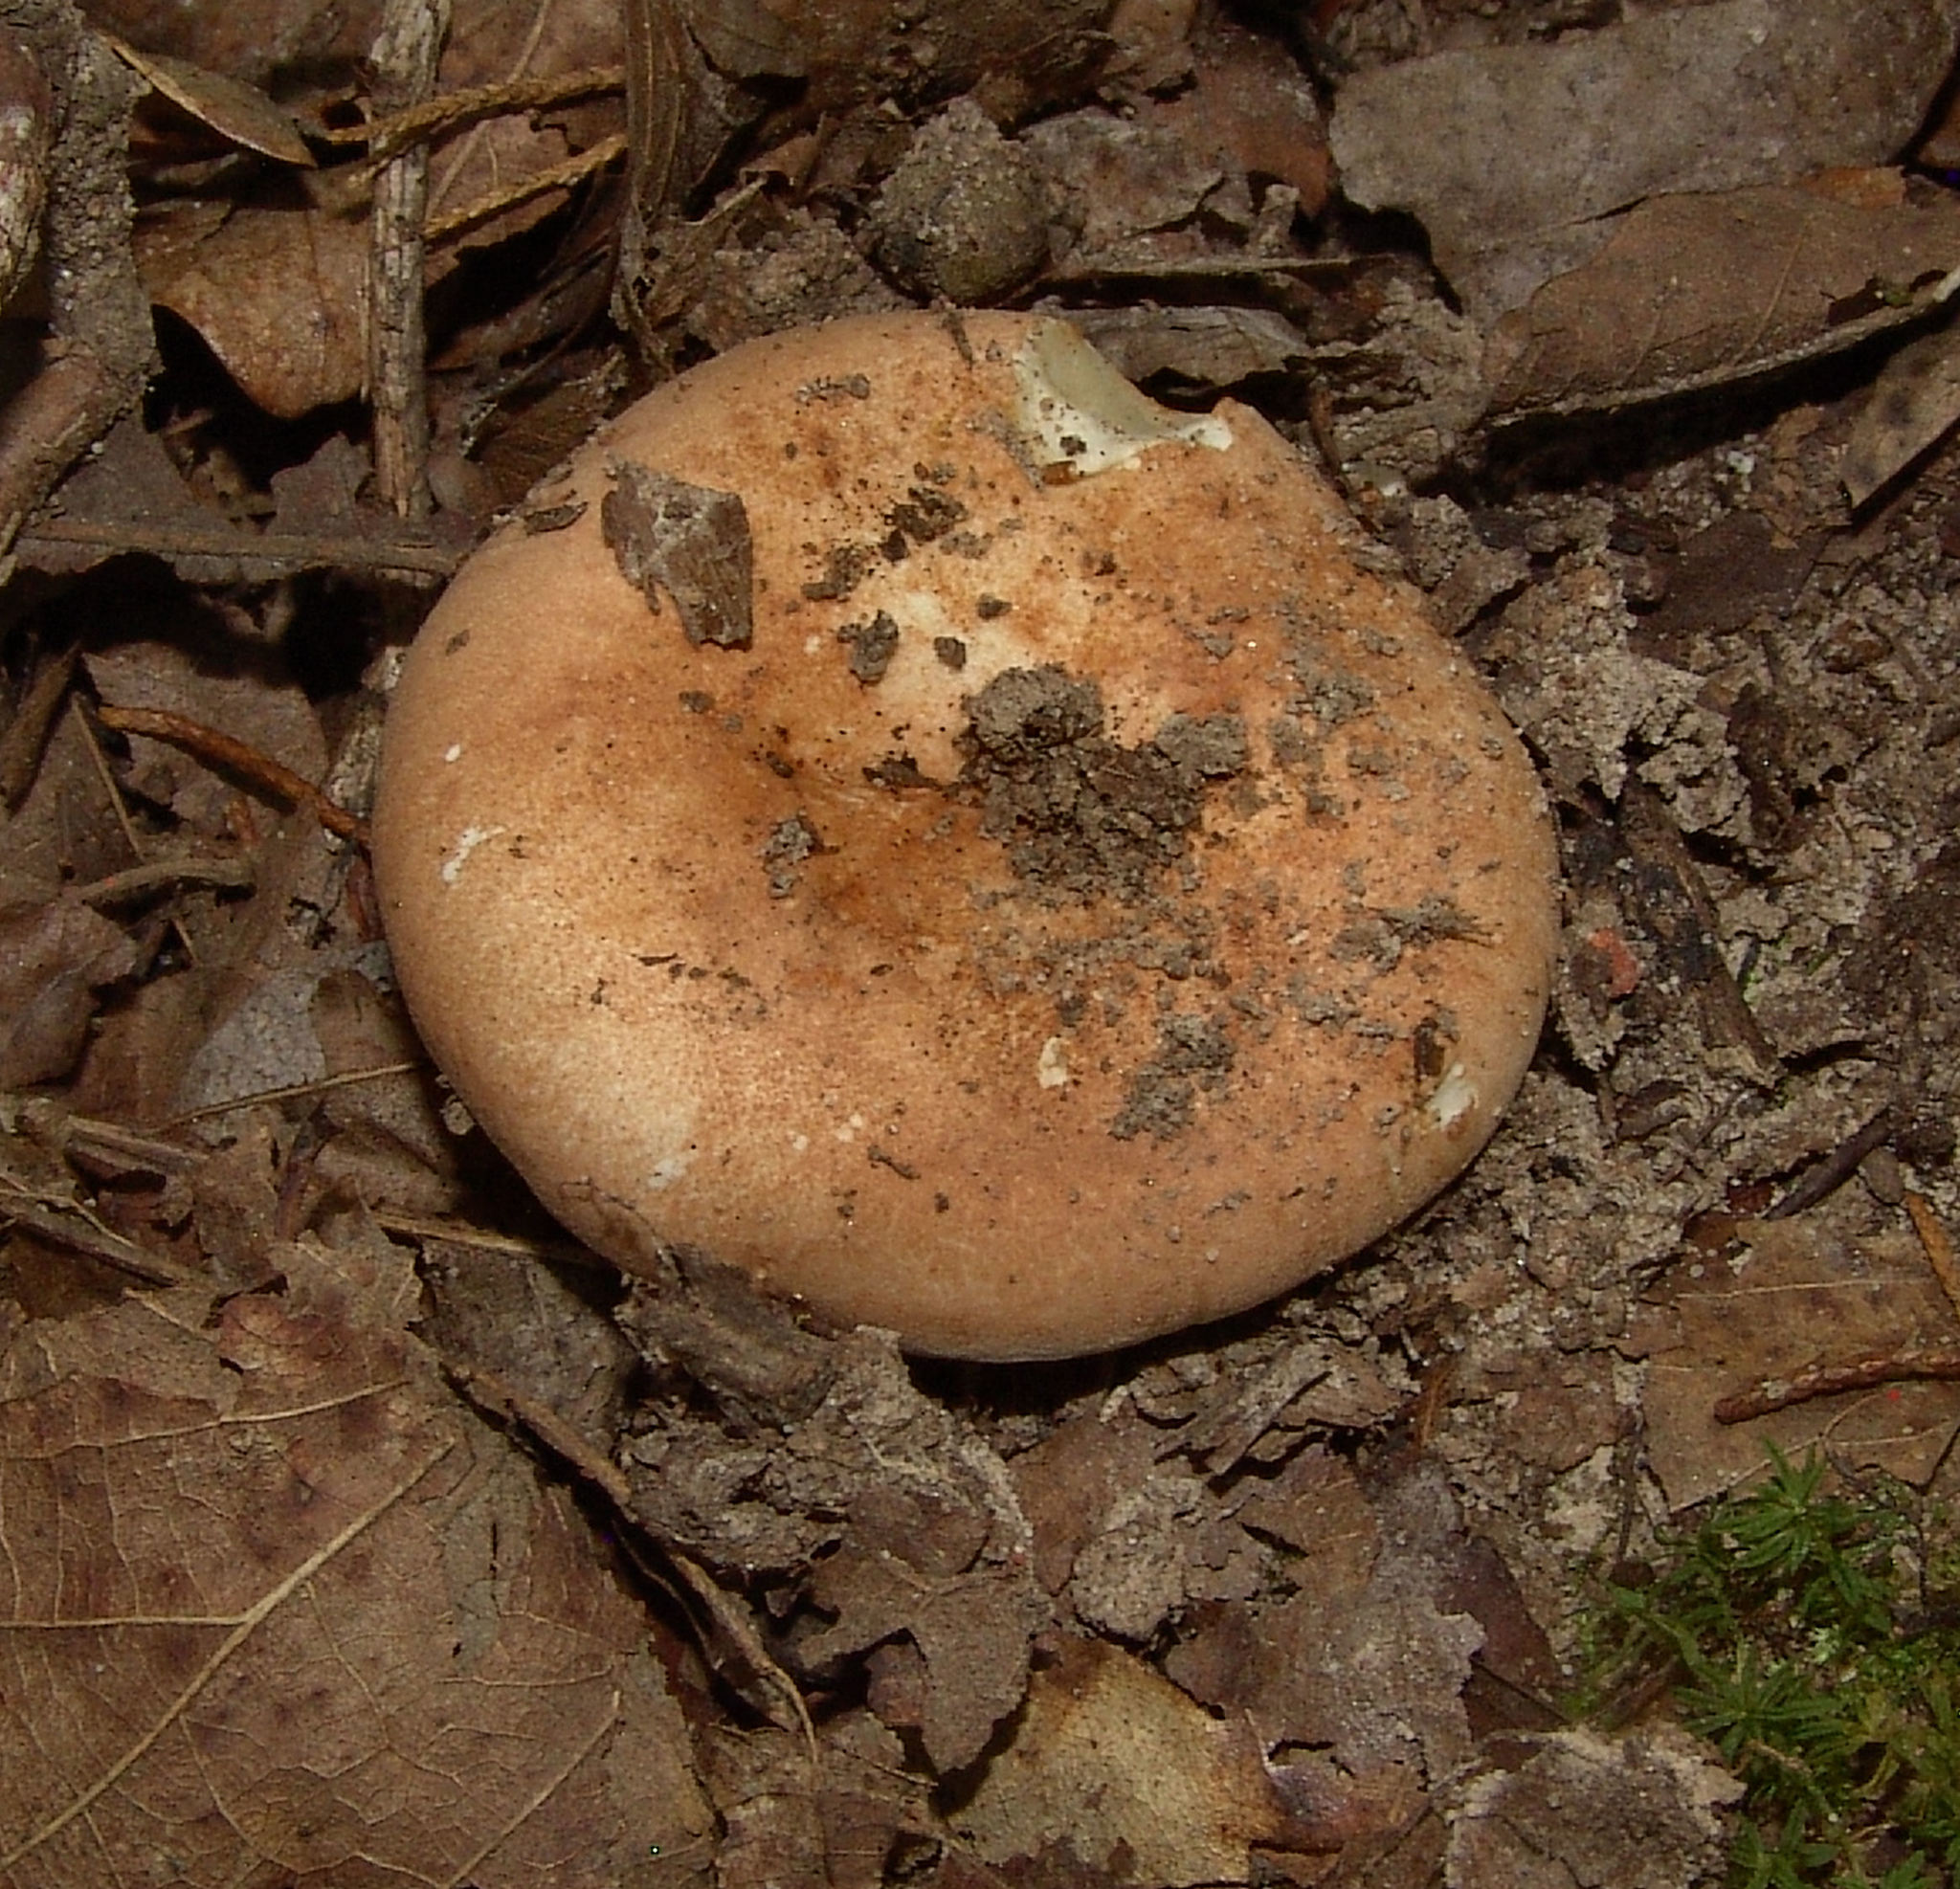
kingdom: Fungi
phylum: Basidiomycota
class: Agaricomycetes
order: Russulales
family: Russulaceae
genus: Russula
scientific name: Russula compacta
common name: Fishbiscuit russula
